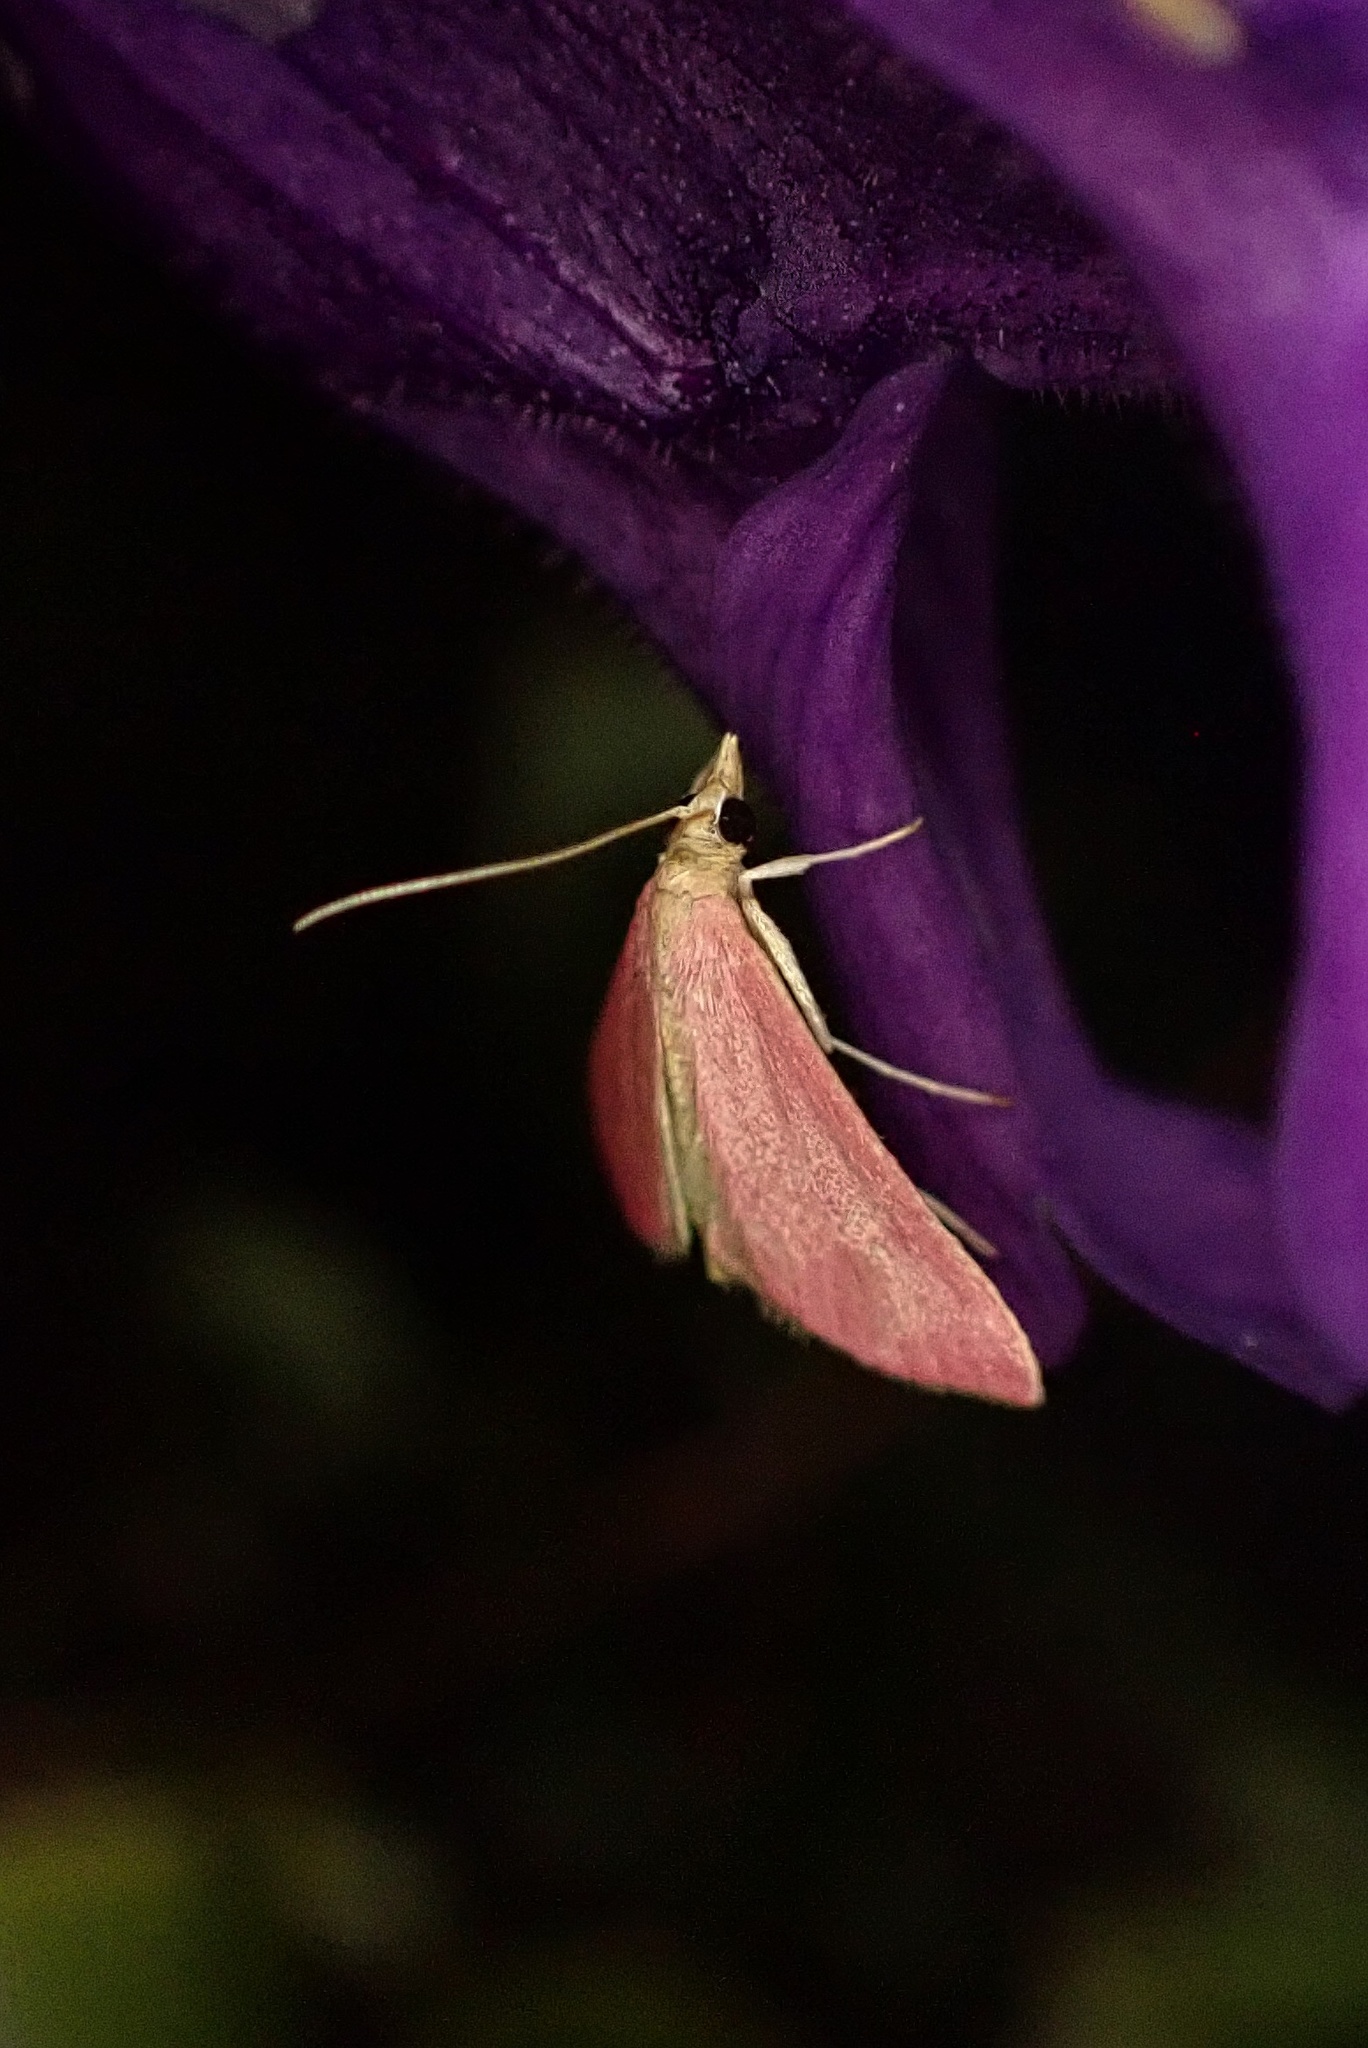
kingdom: Animalia
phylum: Arthropoda
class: Insecta
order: Lepidoptera
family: Crambidae
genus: Pyrausta
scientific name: Pyrausta inornatalis
